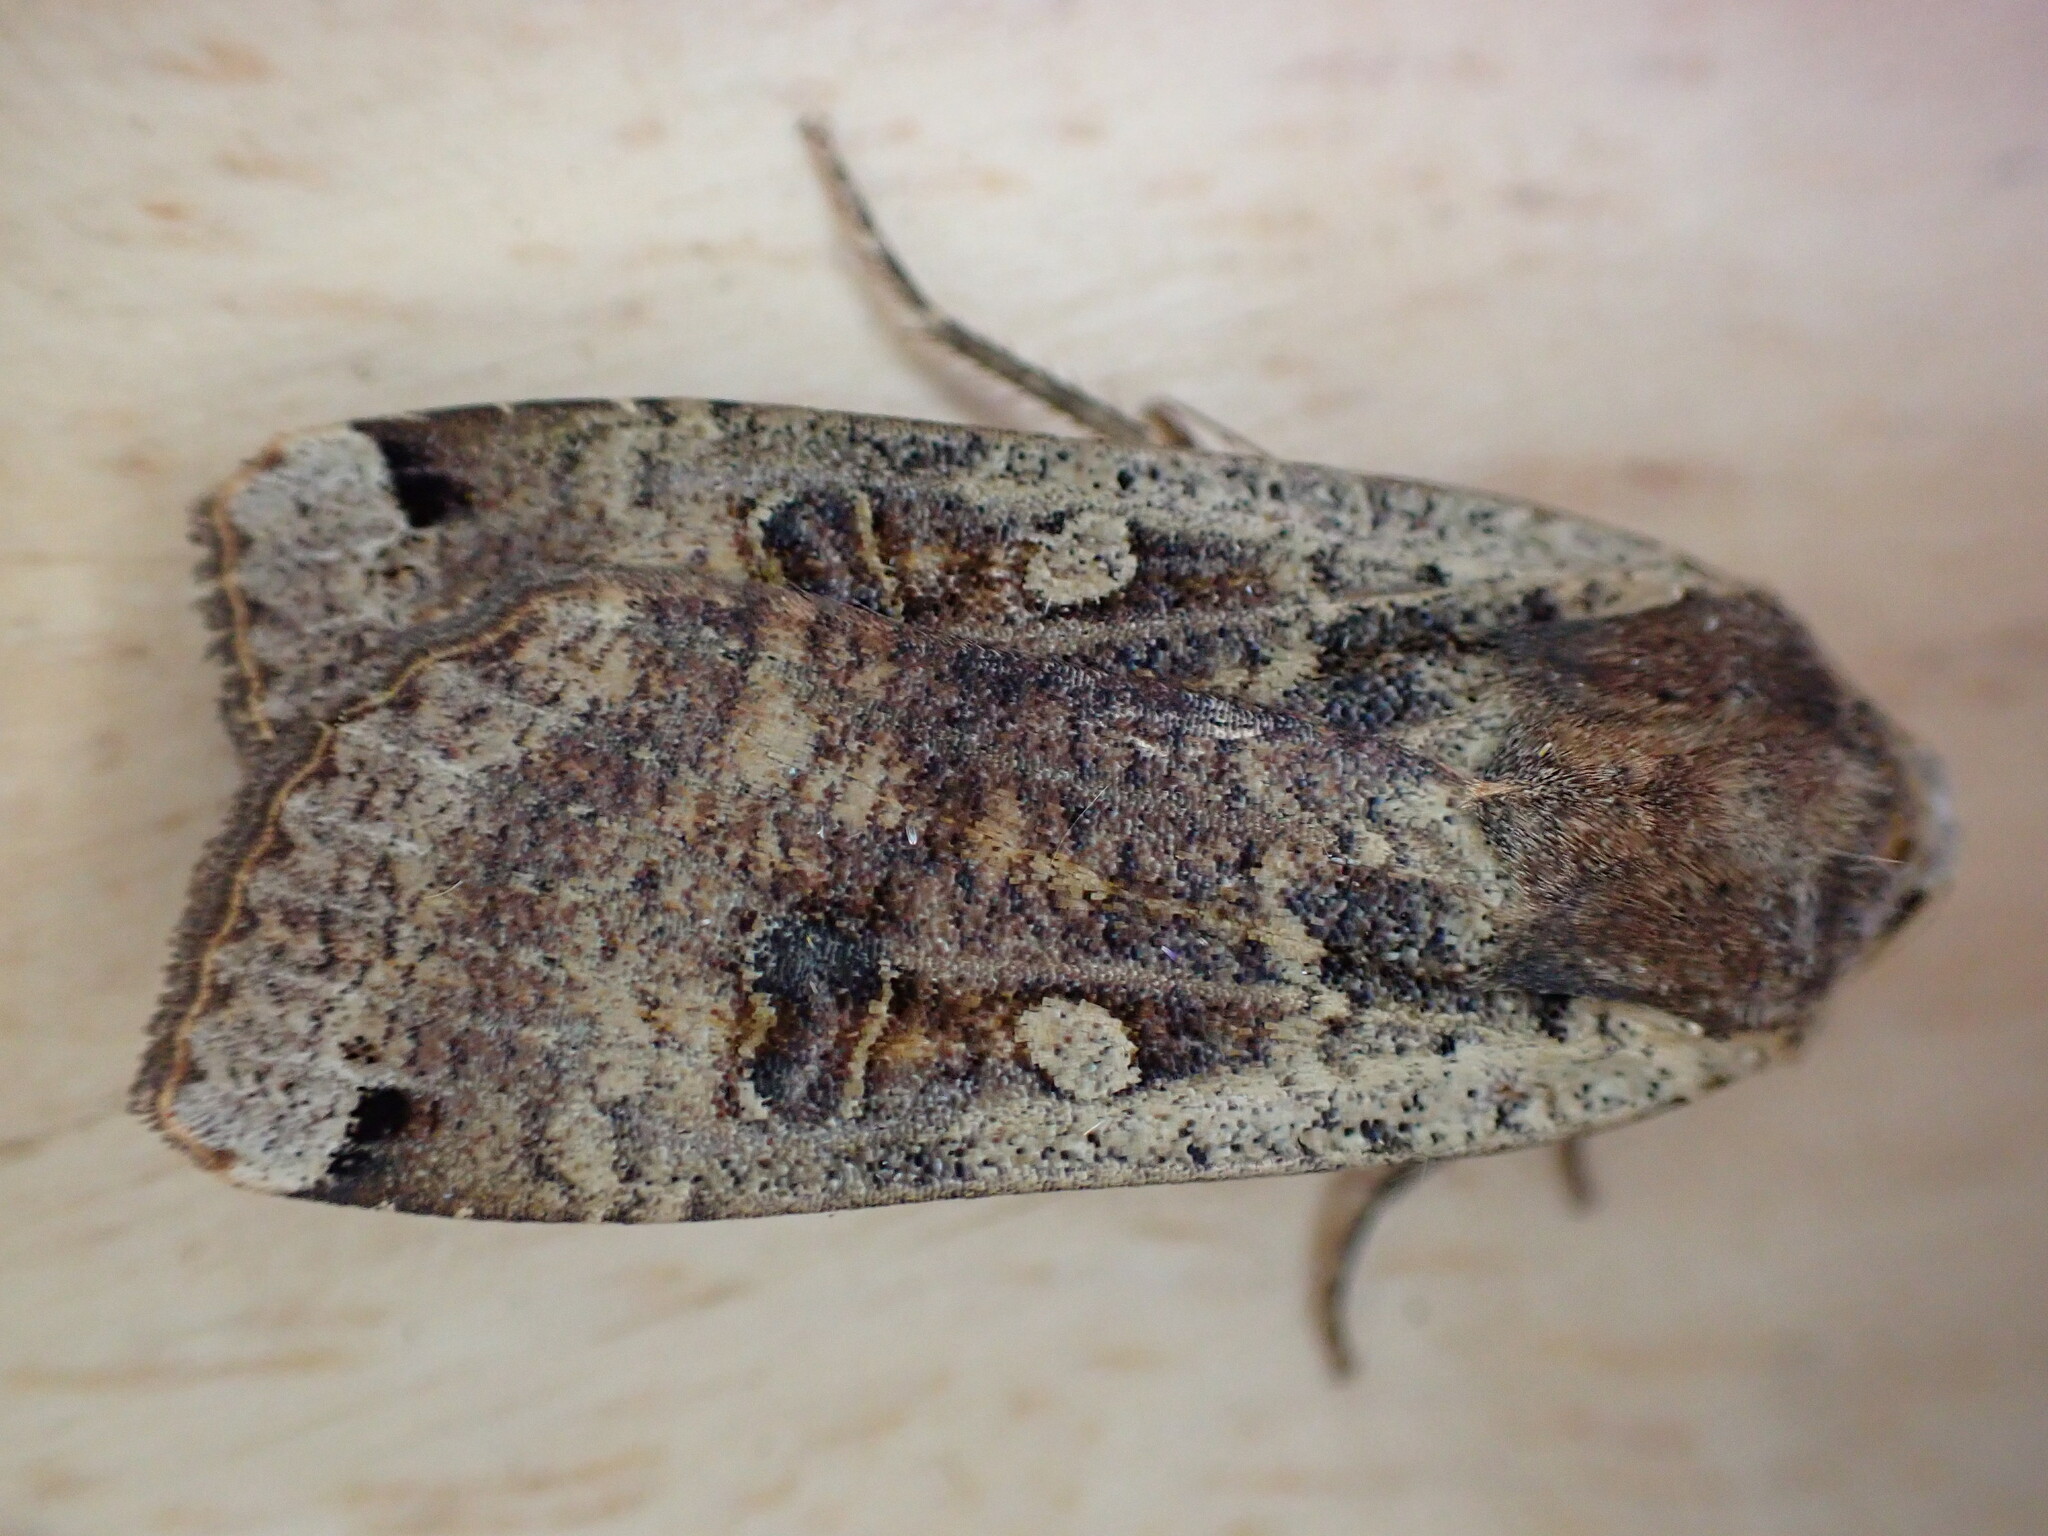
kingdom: Animalia
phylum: Arthropoda
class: Insecta
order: Lepidoptera
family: Noctuidae
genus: Noctua
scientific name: Noctua pronuba
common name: Large yellow underwing
